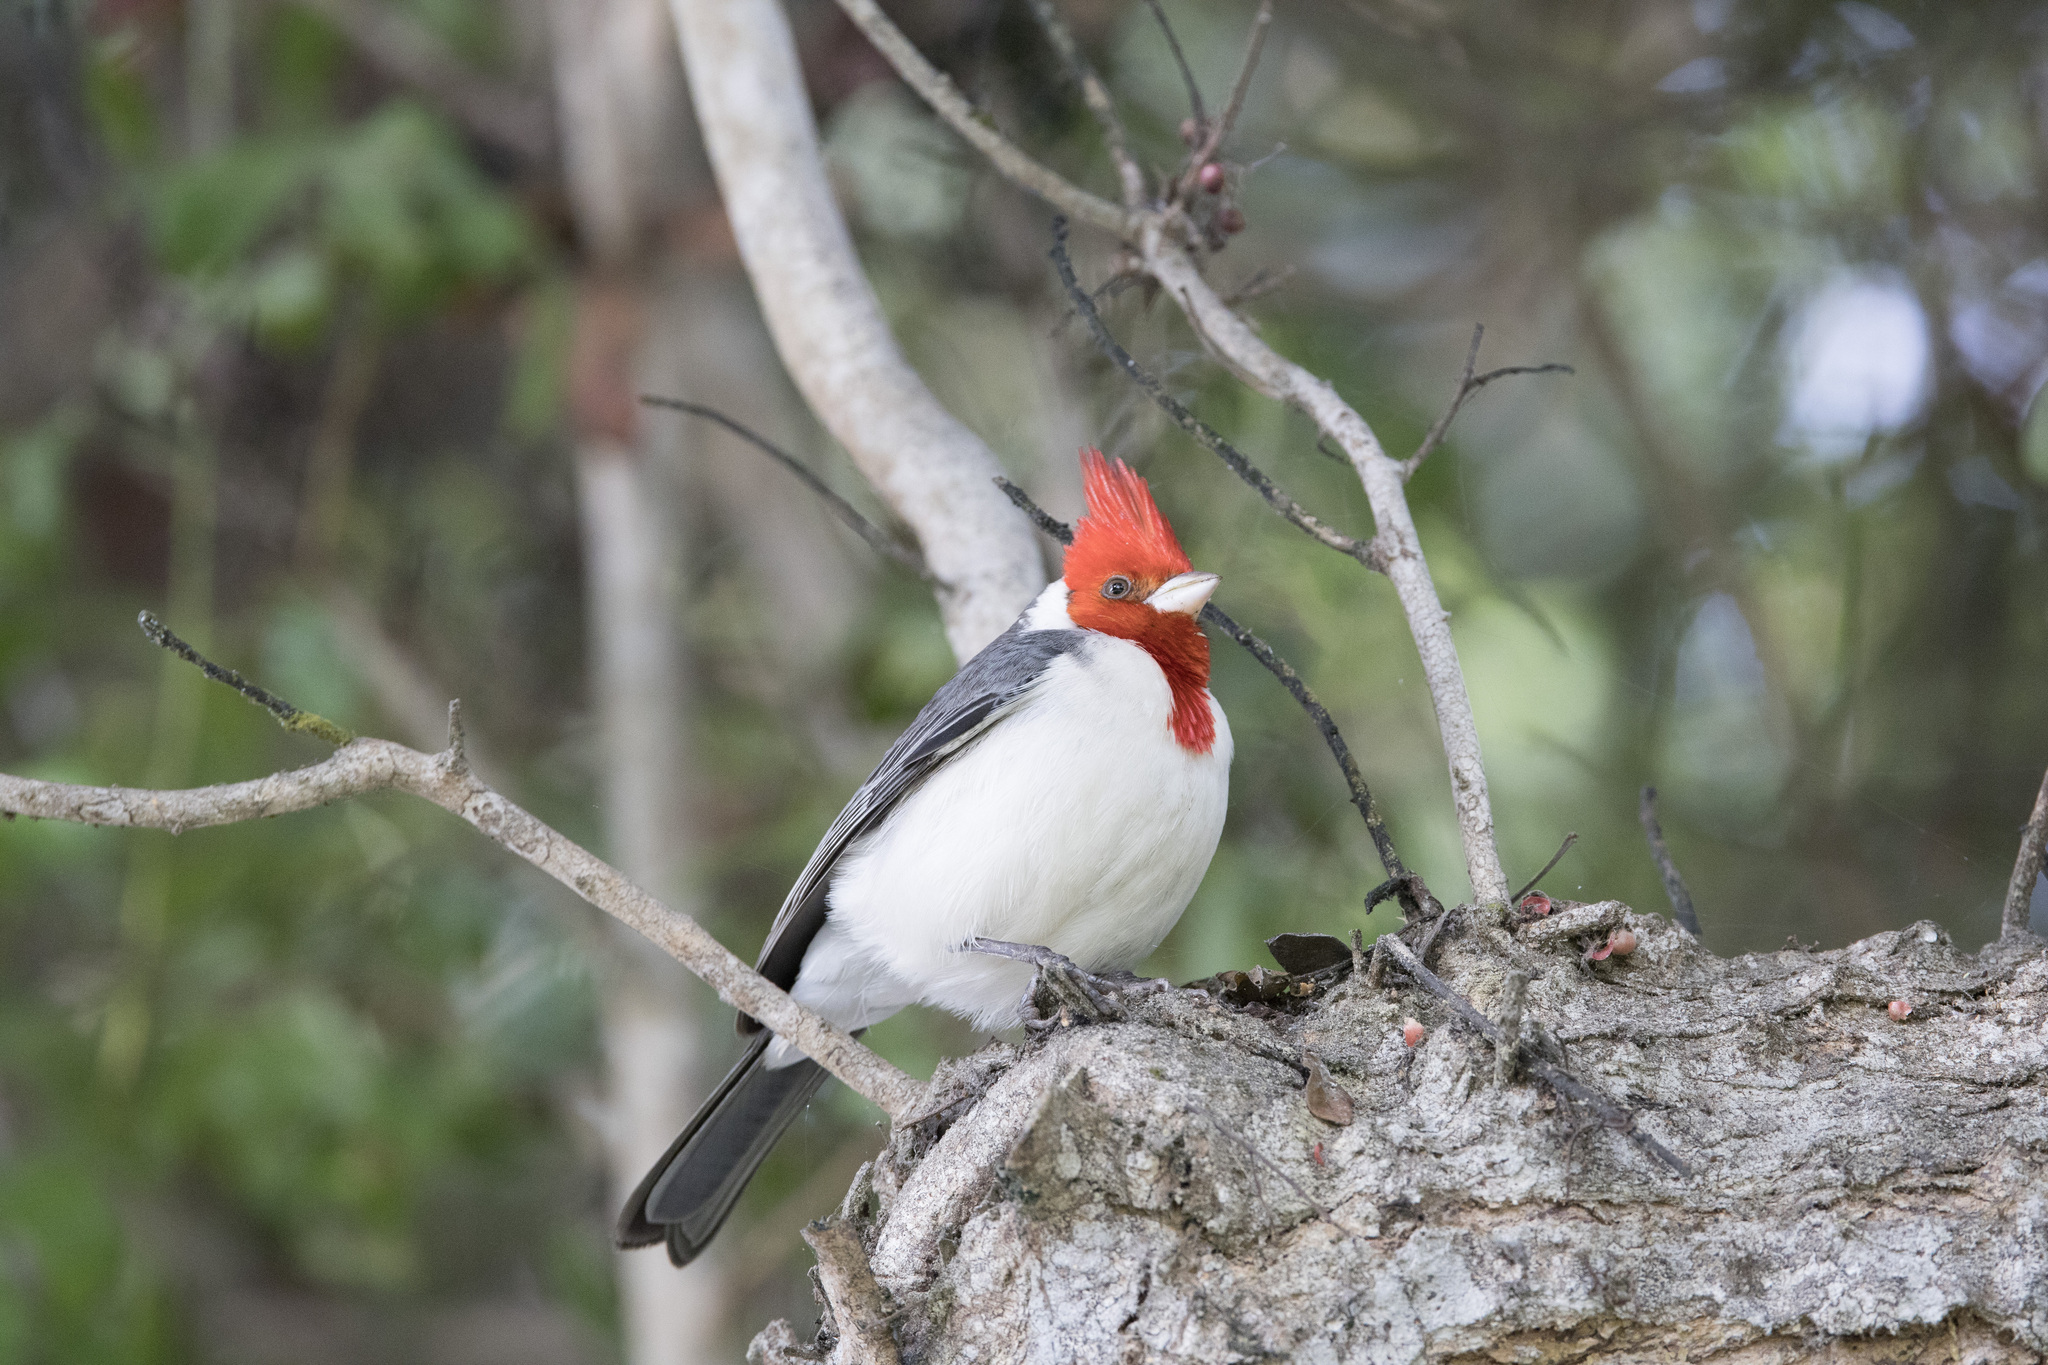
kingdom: Animalia
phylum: Chordata
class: Aves
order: Passeriformes
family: Thraupidae
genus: Paroaria
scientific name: Paroaria coronata
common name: Red-crested cardinal
